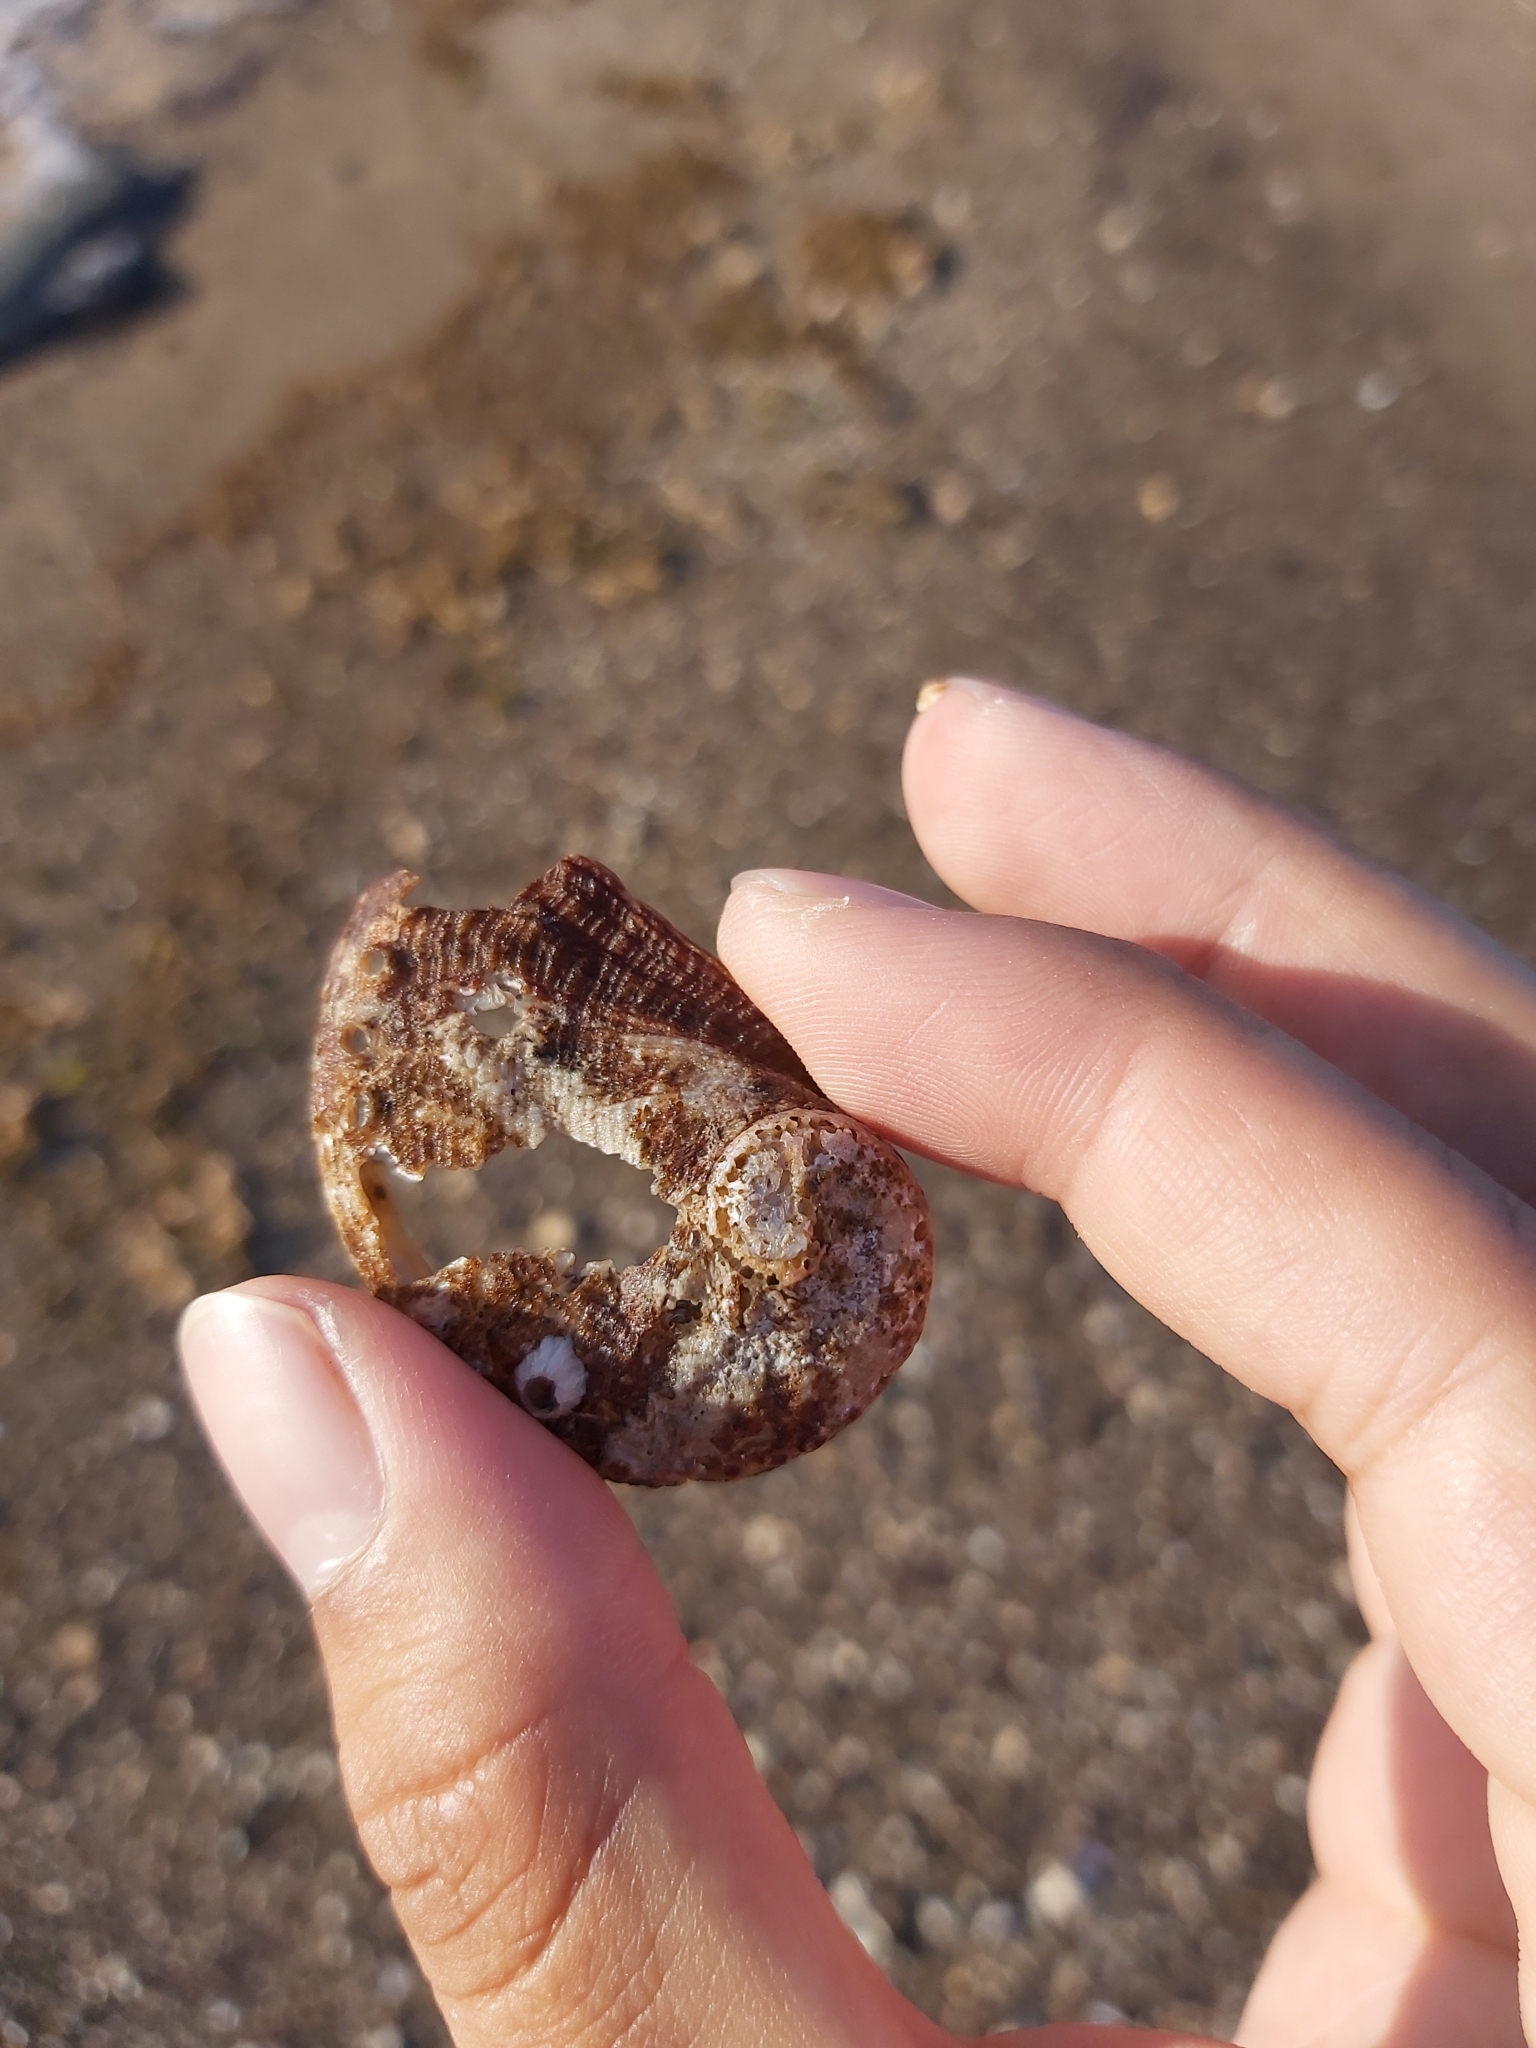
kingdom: Animalia
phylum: Mollusca
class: Gastropoda
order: Lepetellida
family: Haliotidae
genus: Haliotis
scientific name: Haliotis coccoradiata
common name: Reddish-rayed abalone
